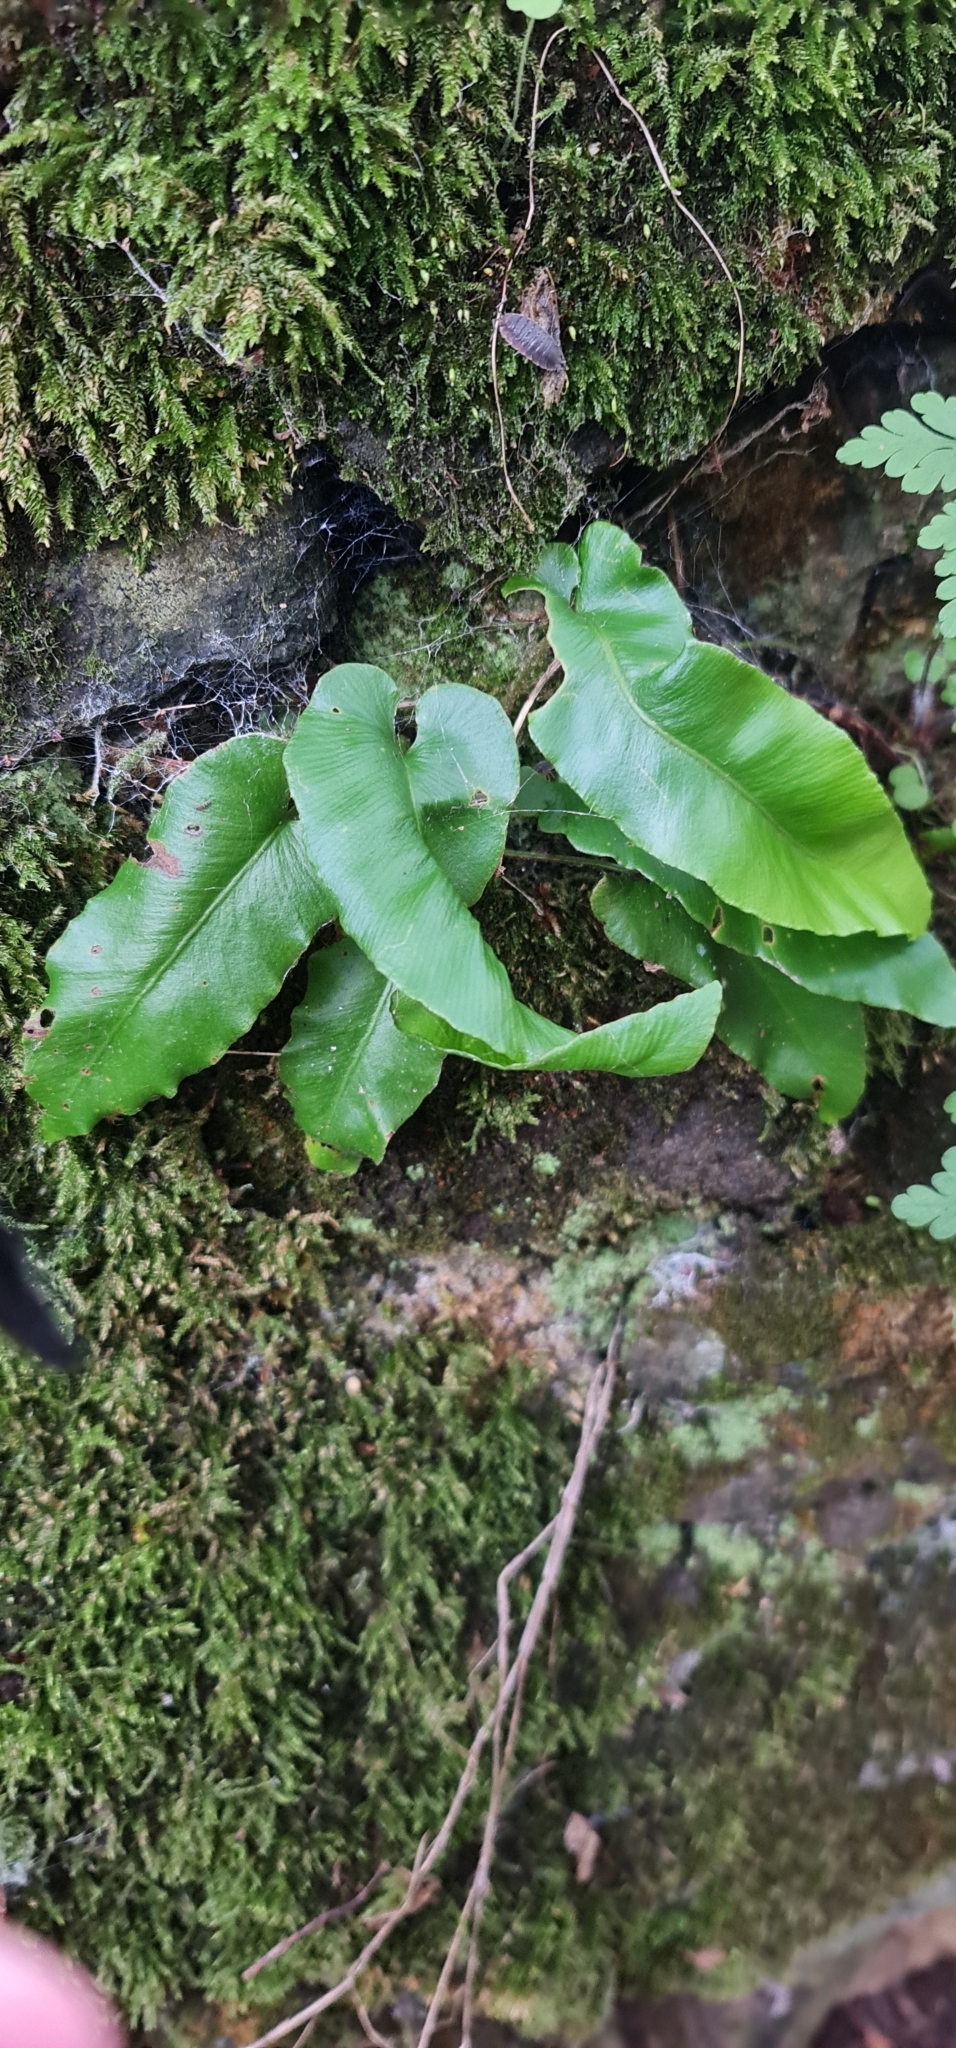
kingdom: Plantae
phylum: Tracheophyta
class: Polypodiopsida
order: Polypodiales
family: Aspleniaceae
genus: Asplenium
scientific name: Asplenium scolopendrium
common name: Hart's-tongue fern
